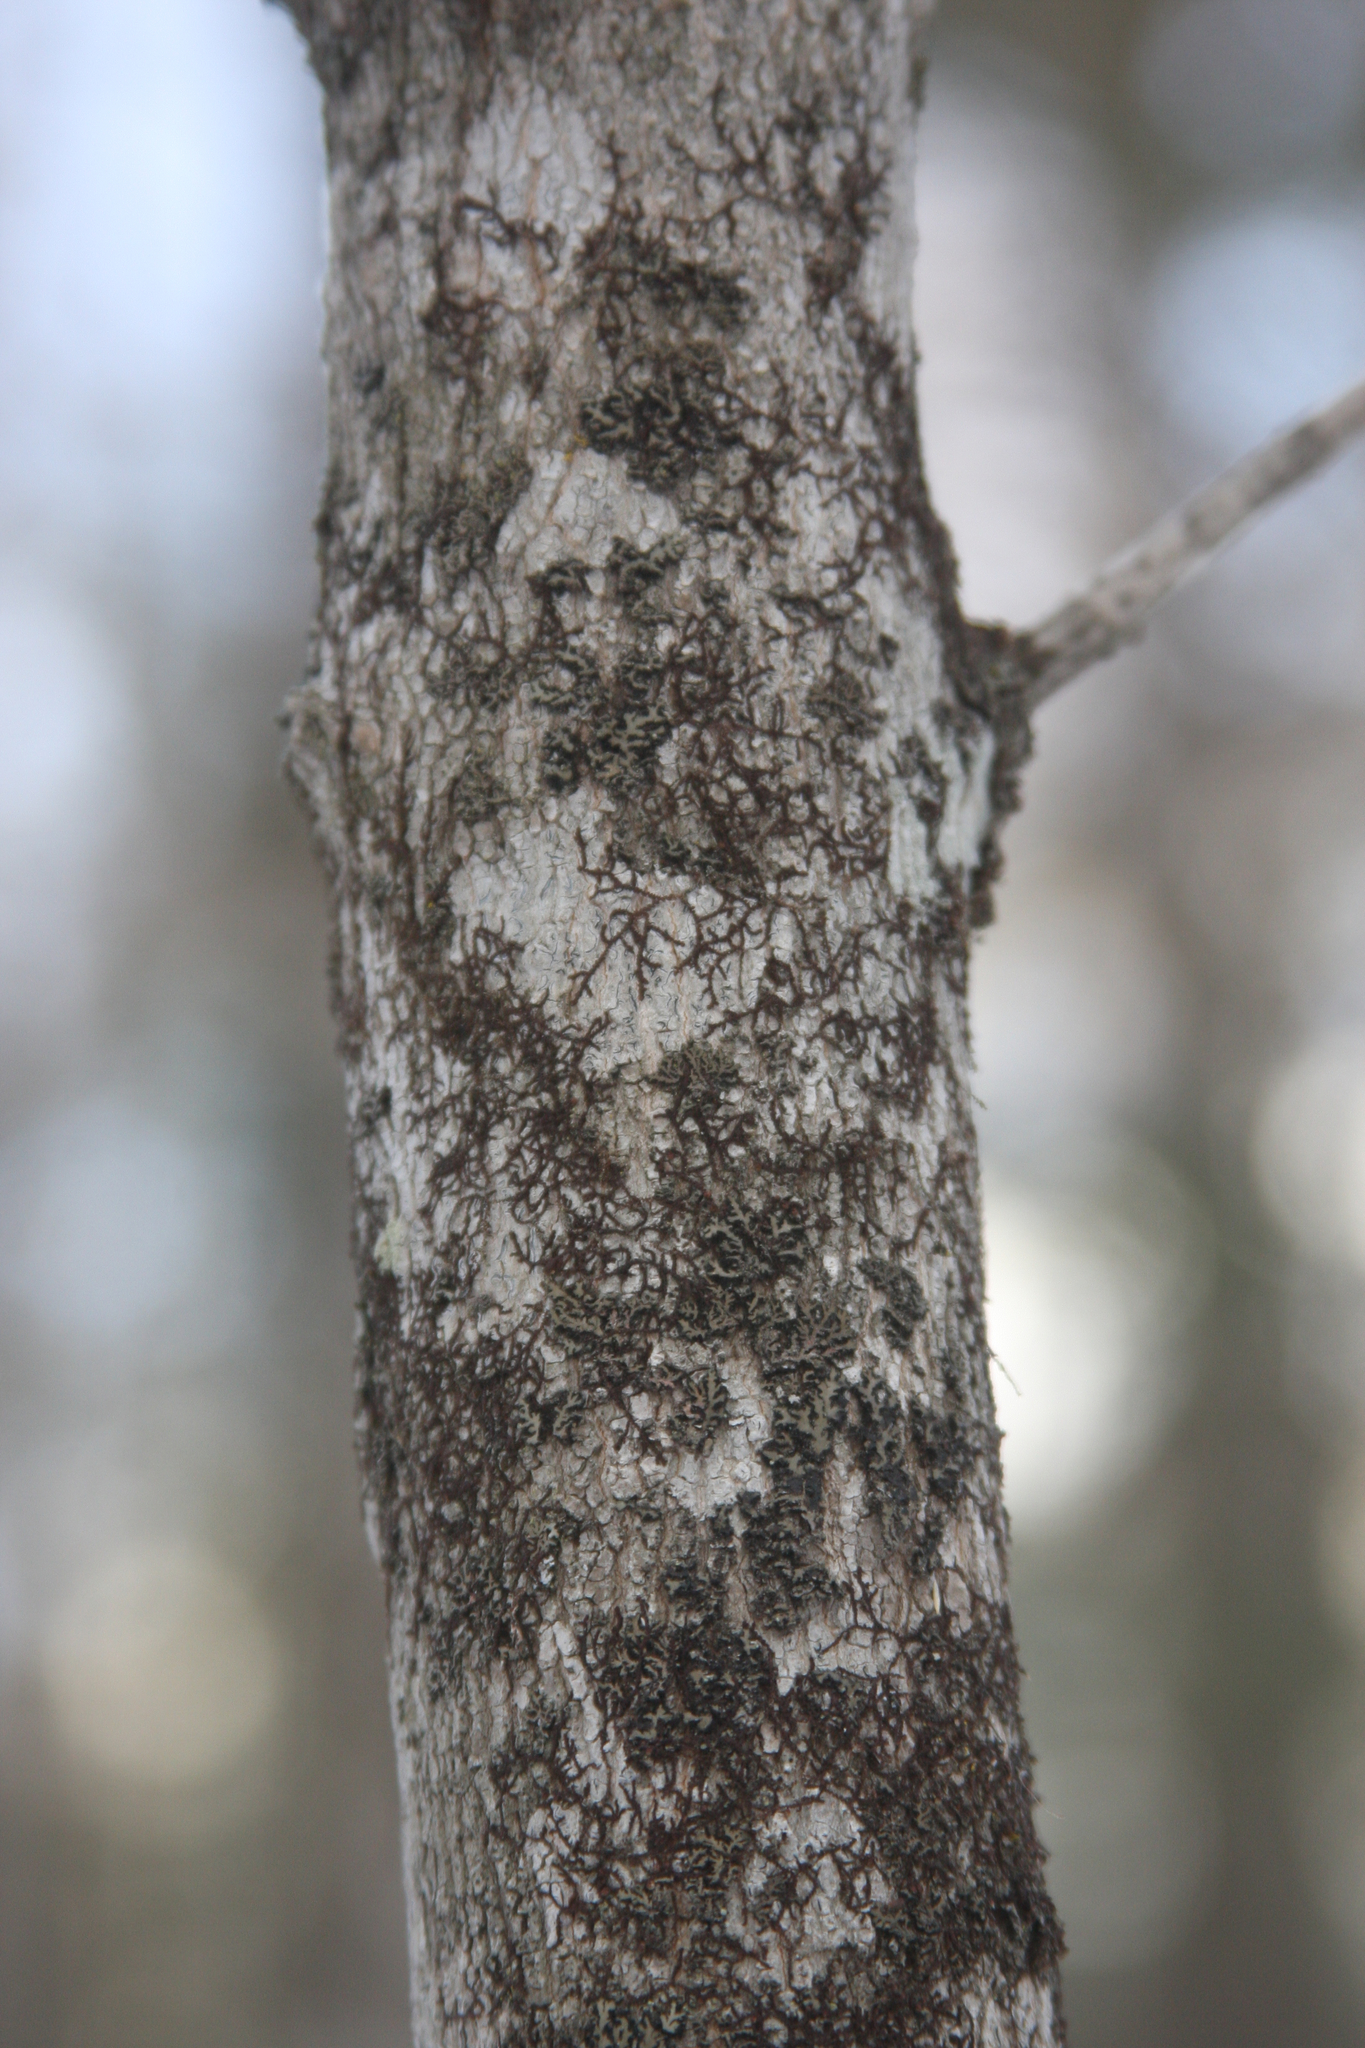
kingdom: Plantae
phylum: Marchantiophyta
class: Jungermanniopsida
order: Porellales
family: Frullaniaceae
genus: Frullania
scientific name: Frullania eboracensis
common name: New york scalewort
